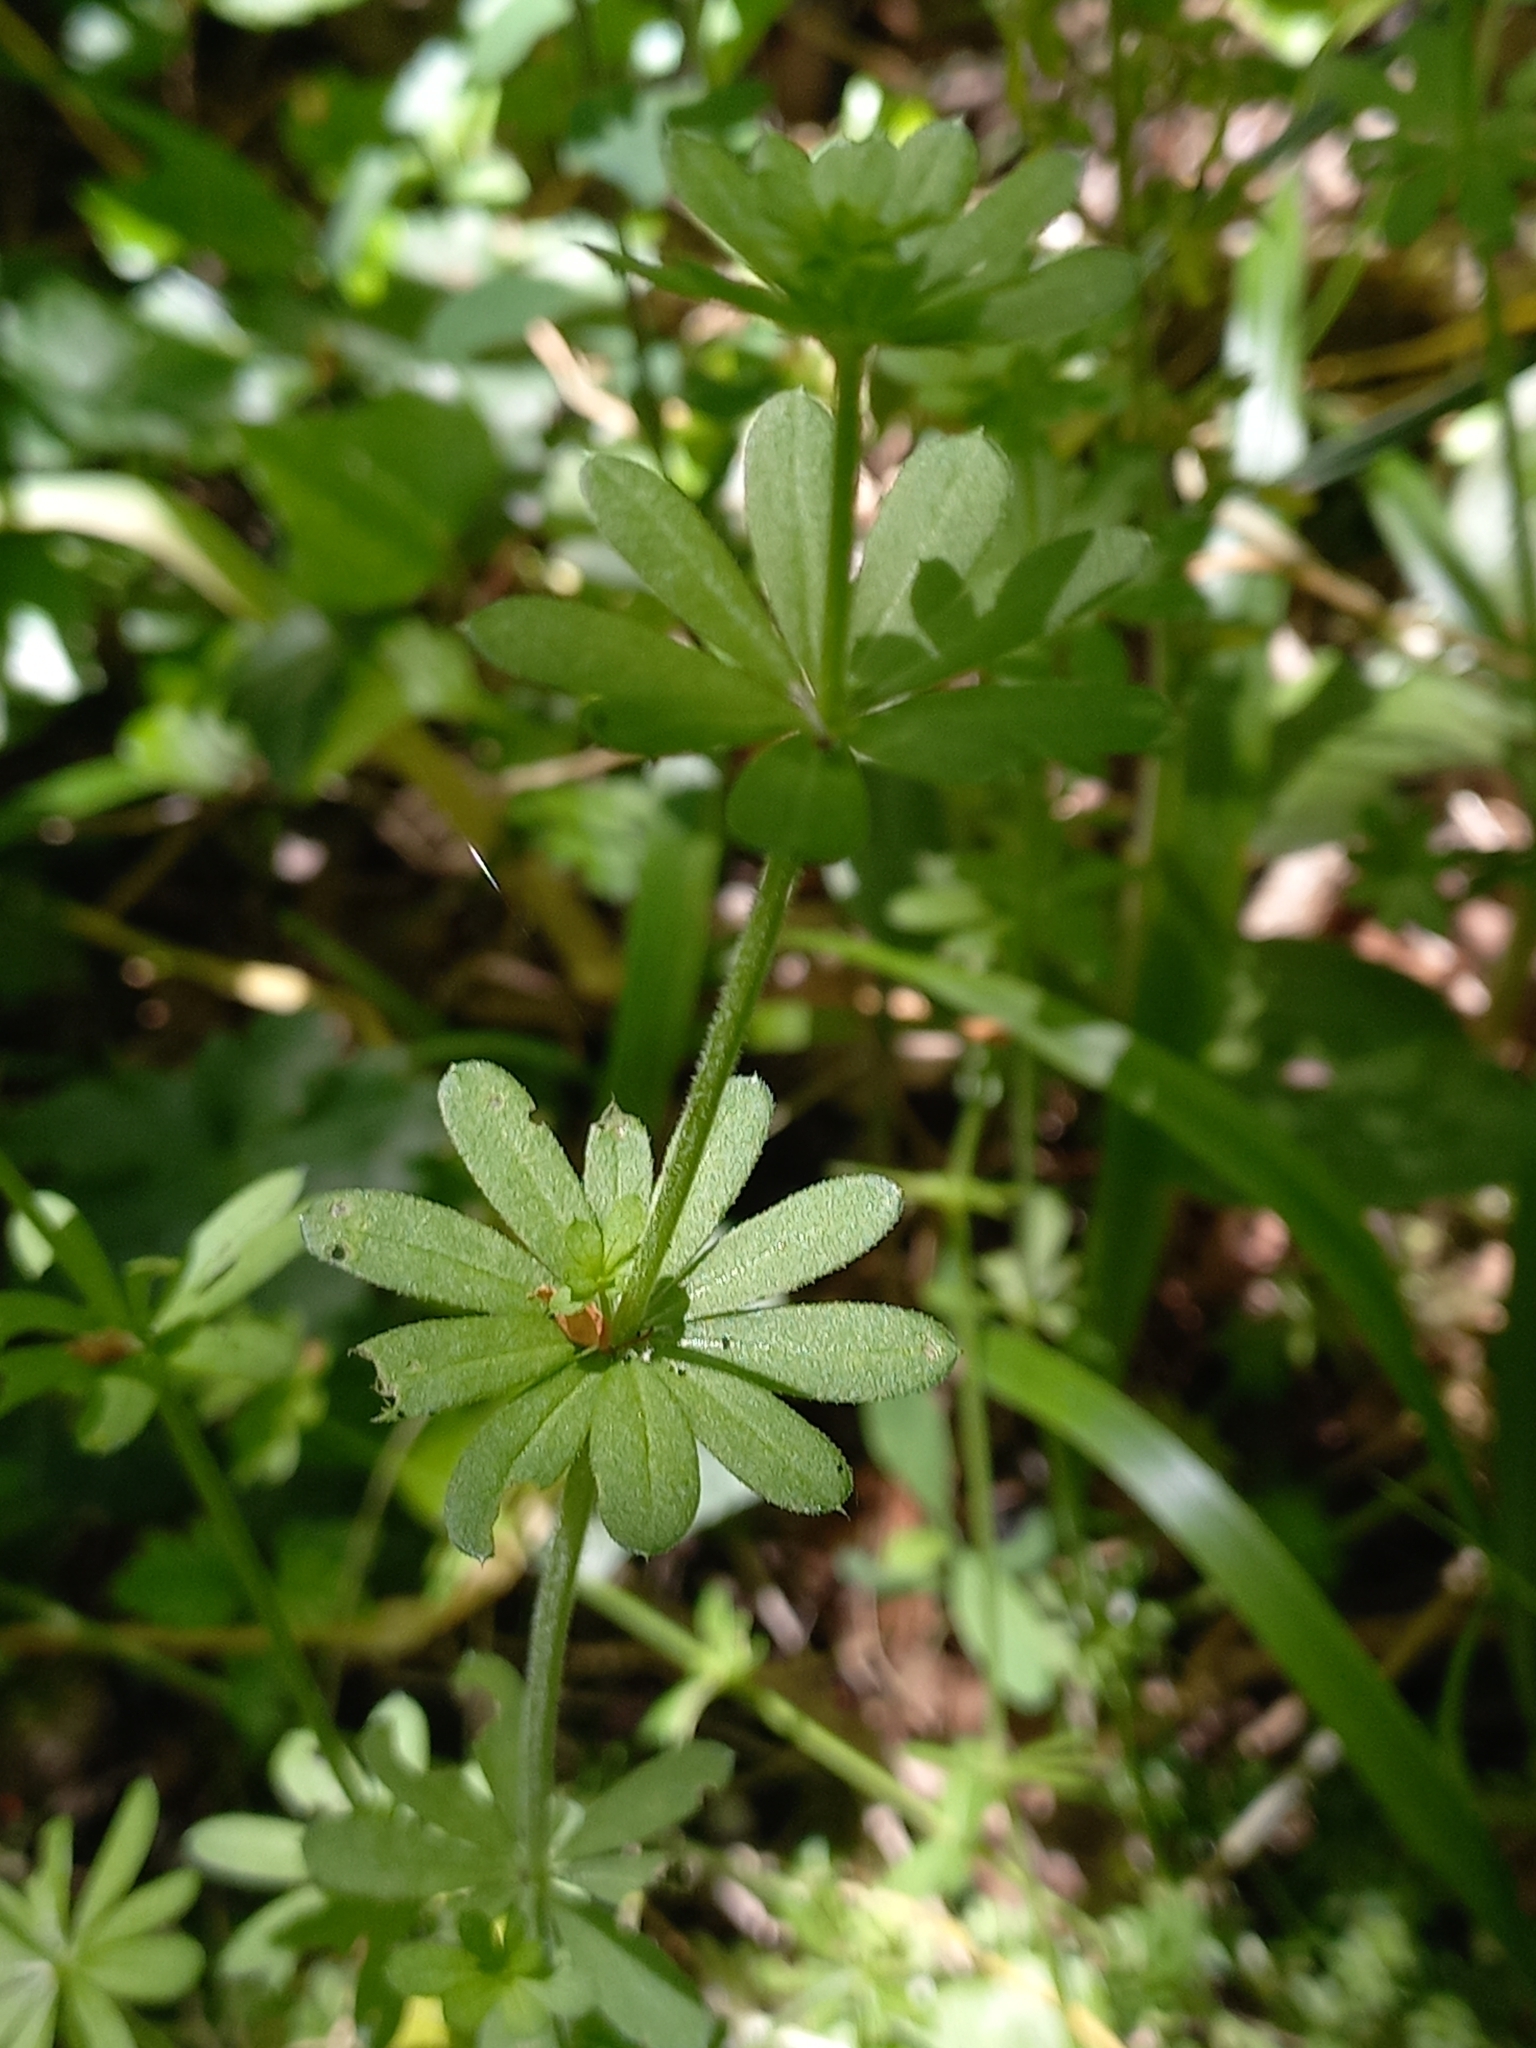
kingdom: Plantae
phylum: Tracheophyta
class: Magnoliopsida
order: Gentianales
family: Rubiaceae
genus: Galium
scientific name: Galium mollugo
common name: Hedge bedstraw
